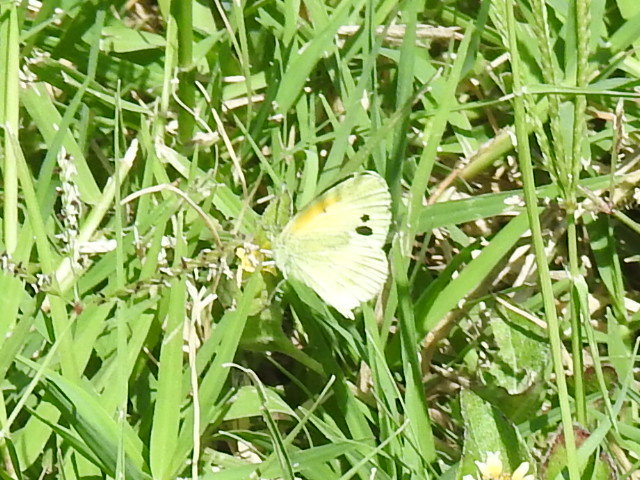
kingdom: Animalia
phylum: Arthropoda
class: Insecta
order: Lepidoptera
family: Pieridae
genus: Nathalis
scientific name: Nathalis iole
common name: Dainty sulphur
